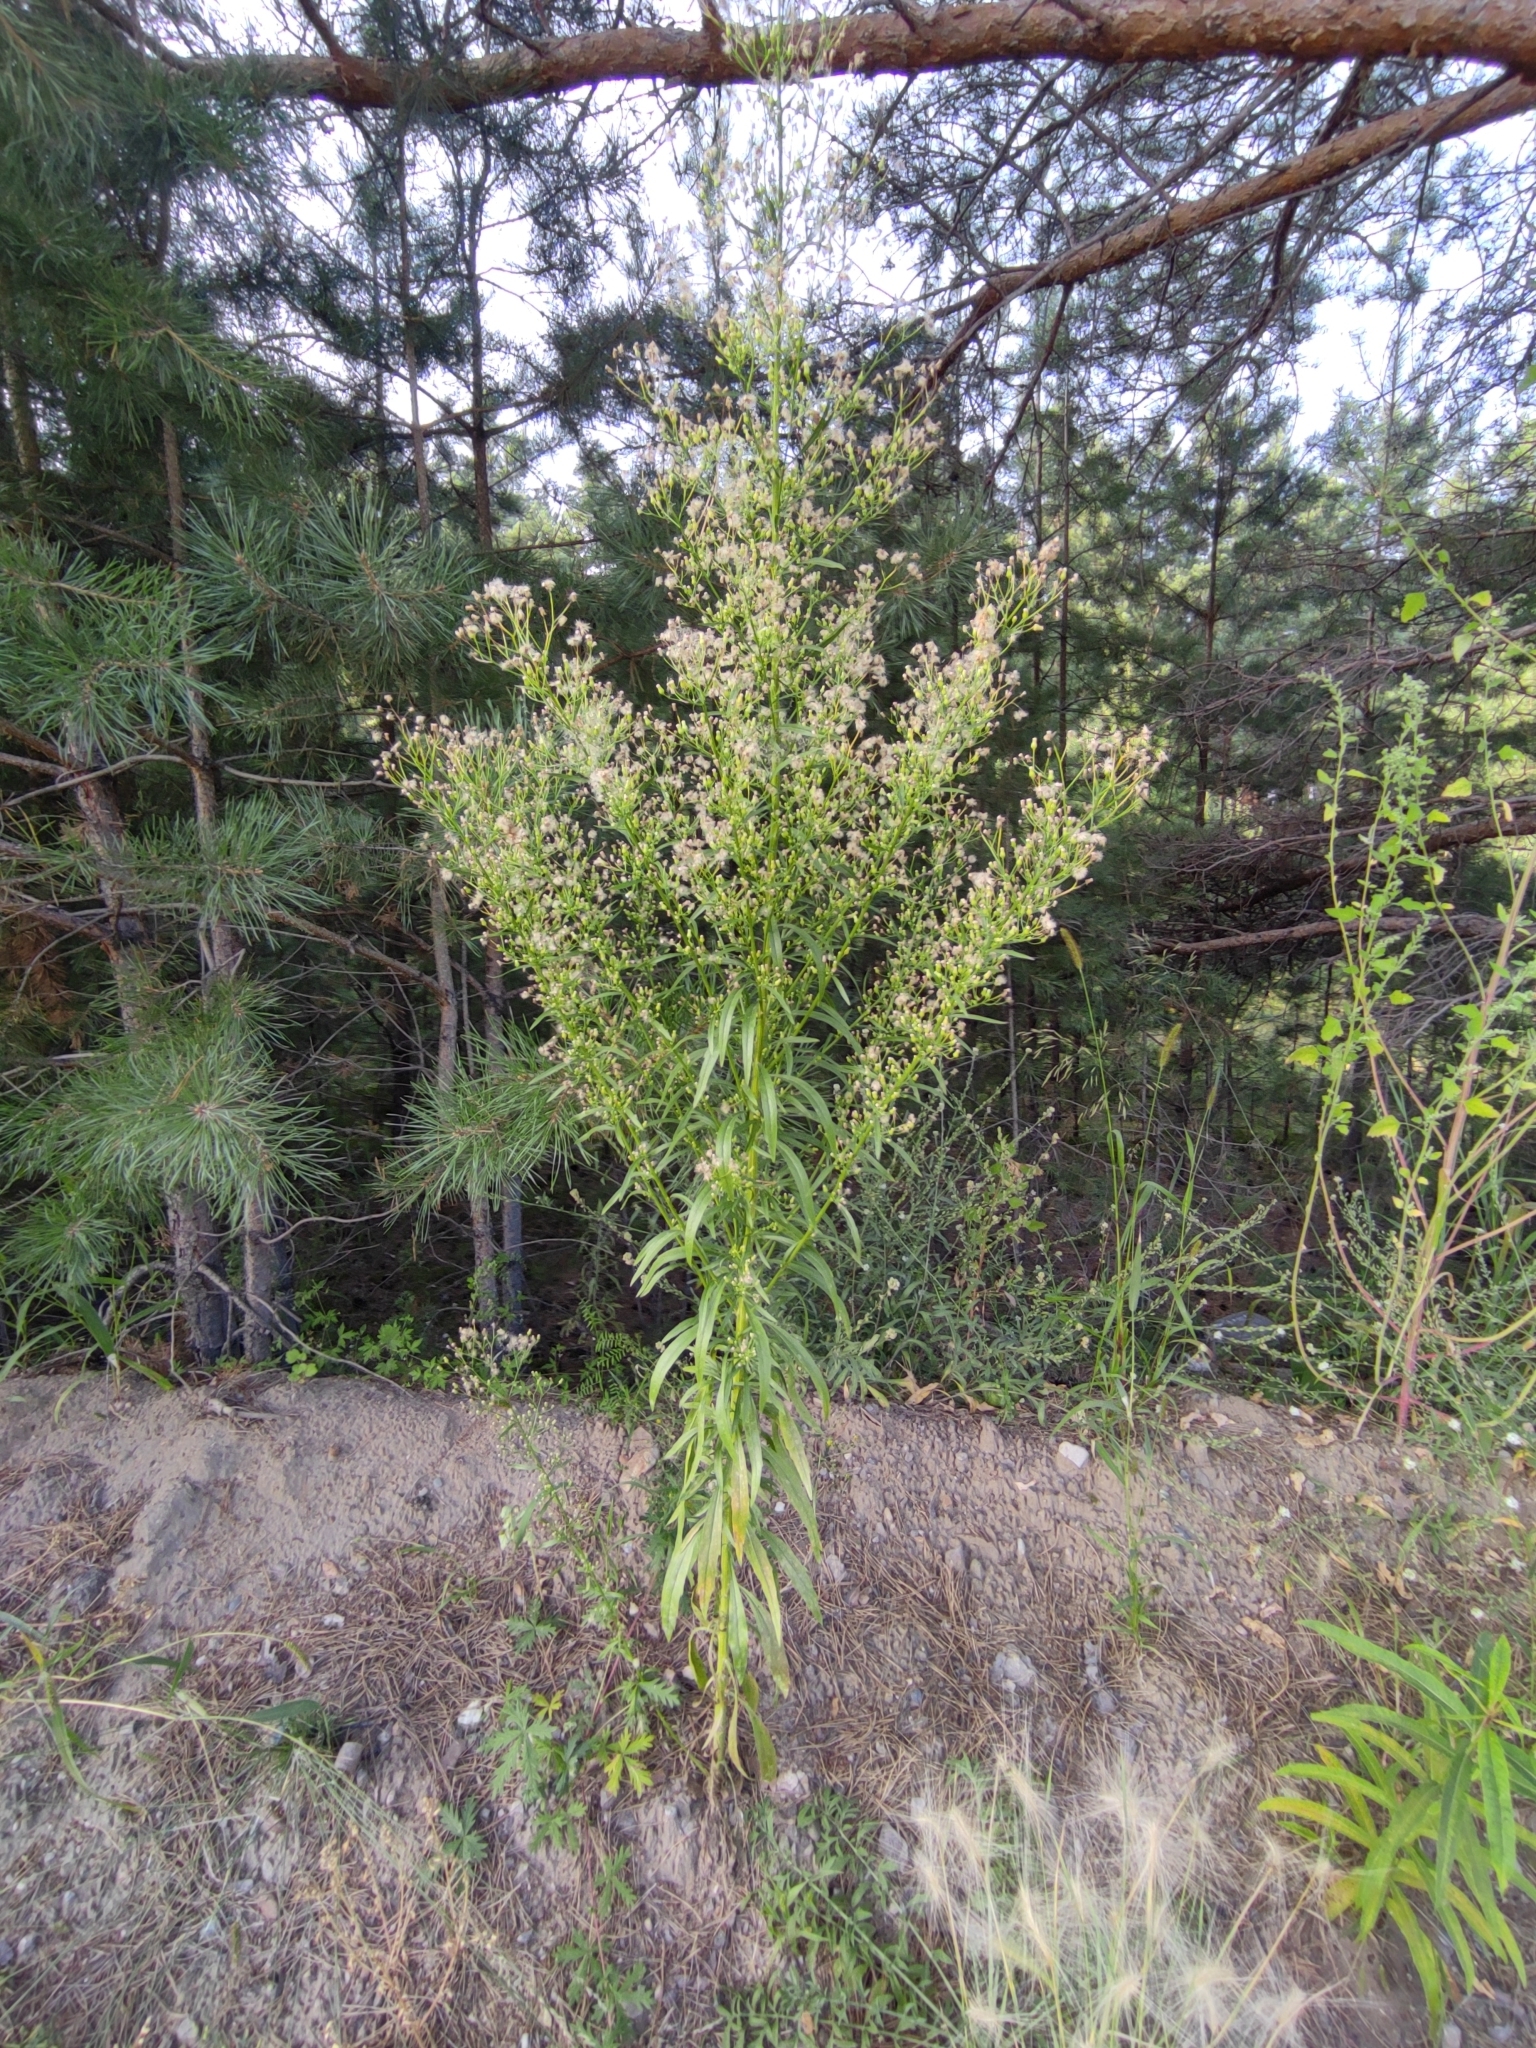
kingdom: Plantae
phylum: Tracheophyta
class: Magnoliopsida
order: Asterales
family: Asteraceae
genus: Erigeron
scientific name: Erigeron canadensis
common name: Canadian fleabane
